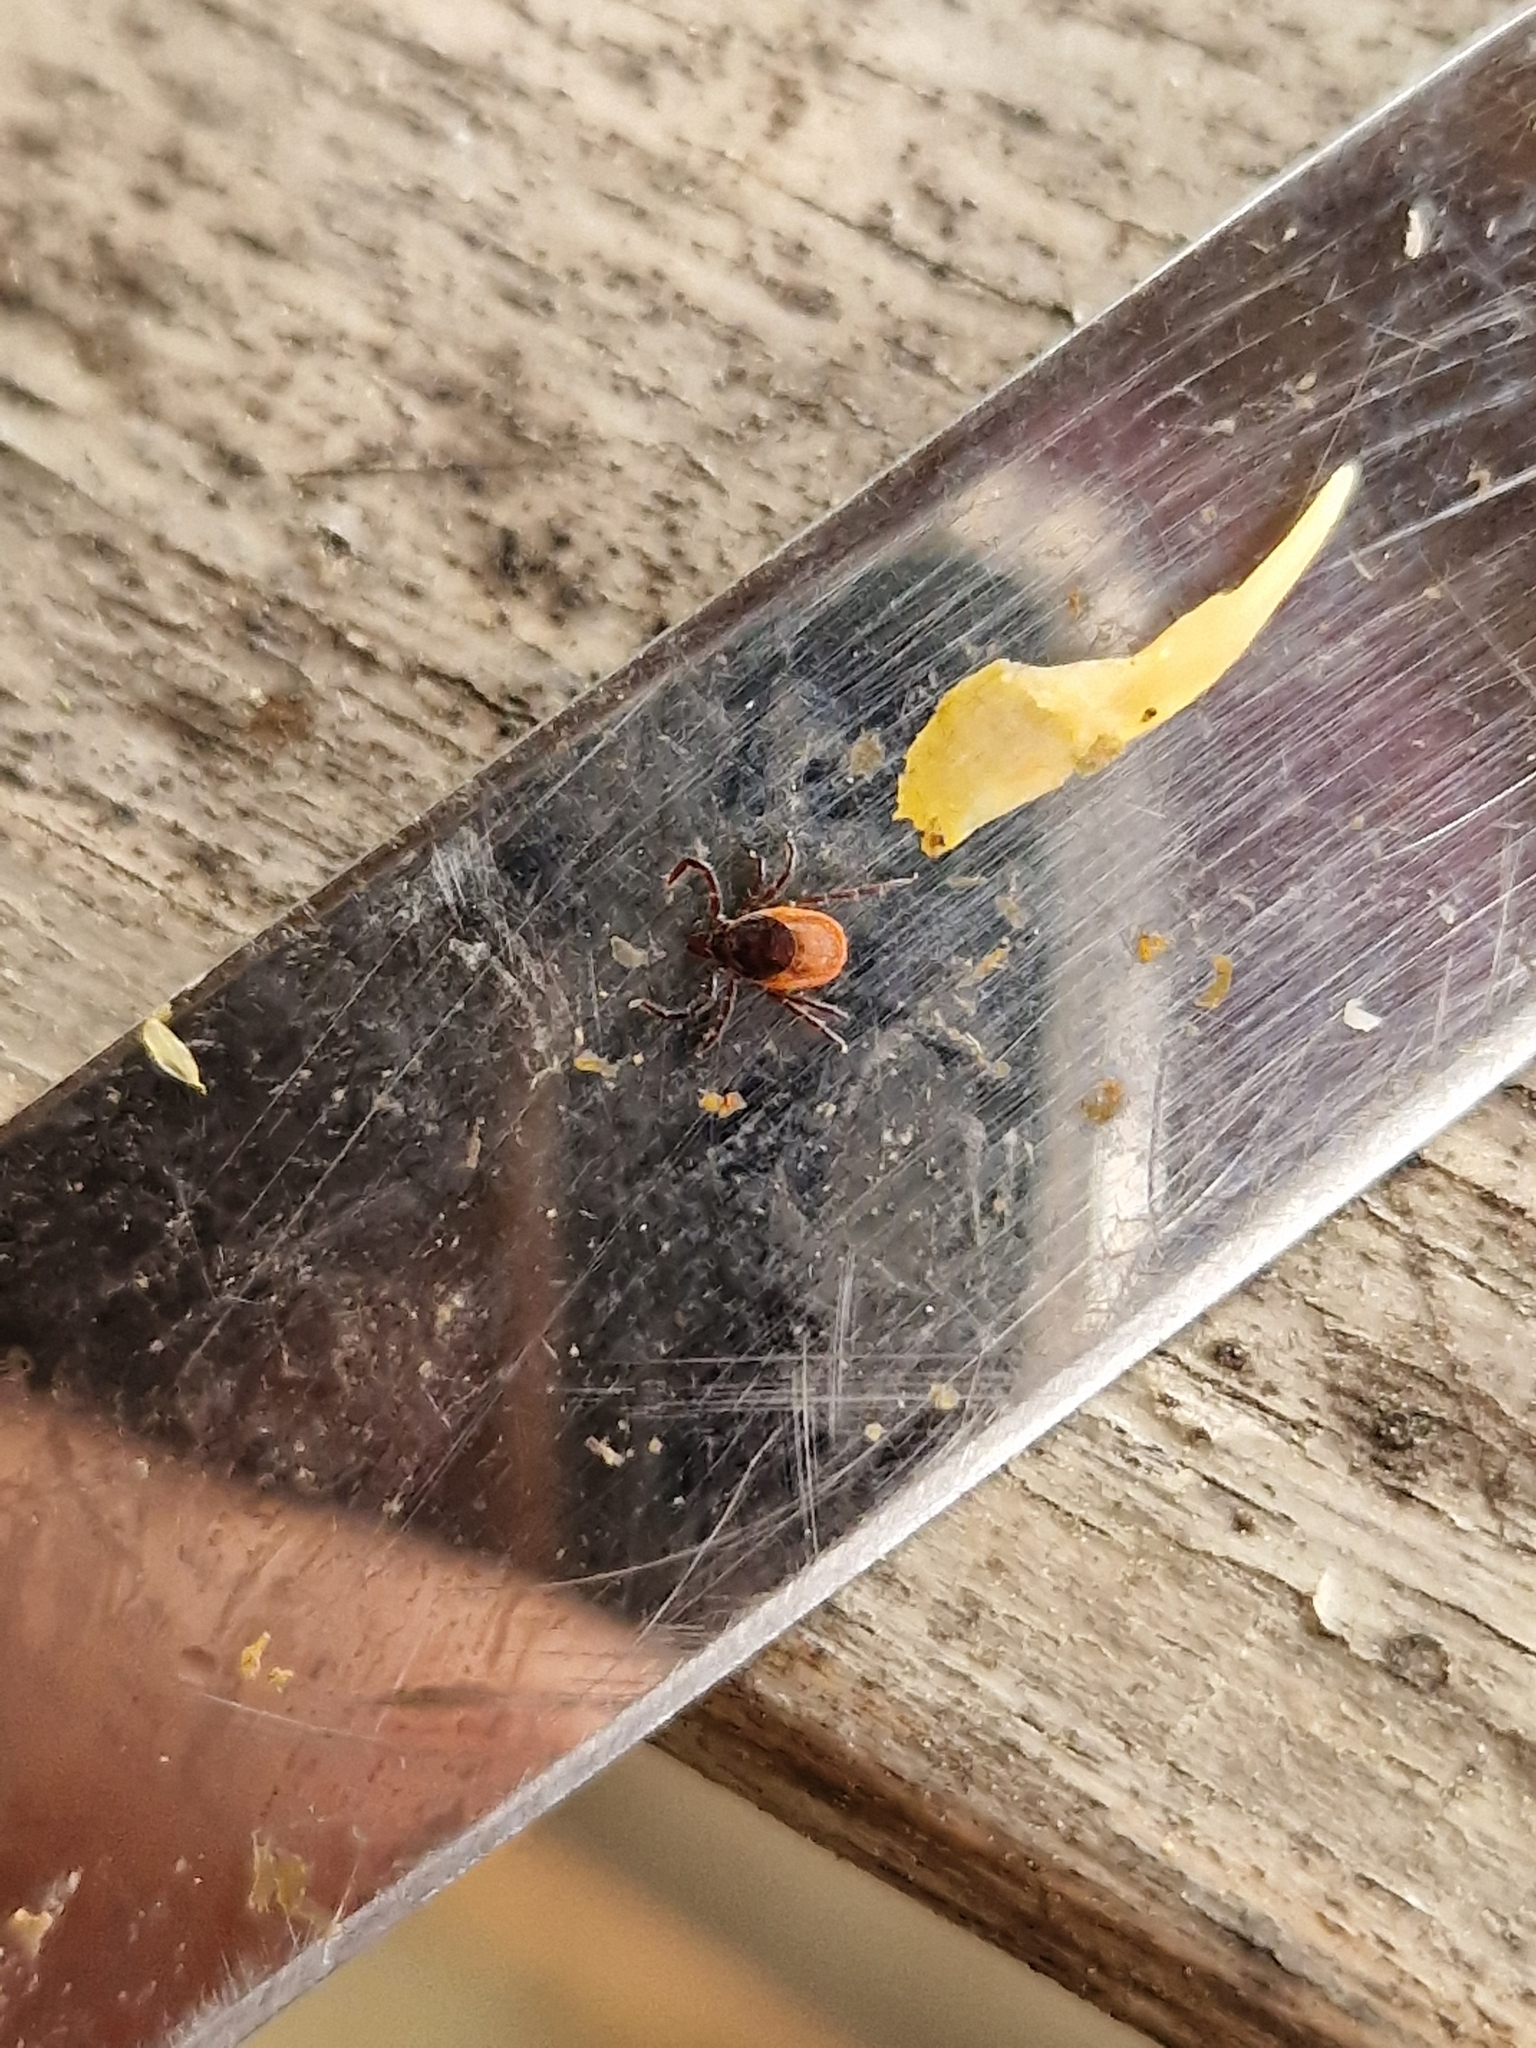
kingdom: Animalia
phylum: Arthropoda
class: Arachnida
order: Ixodida
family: Ixodidae
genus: Ixodes
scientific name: Ixodes ricinus
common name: Castor bean tick
